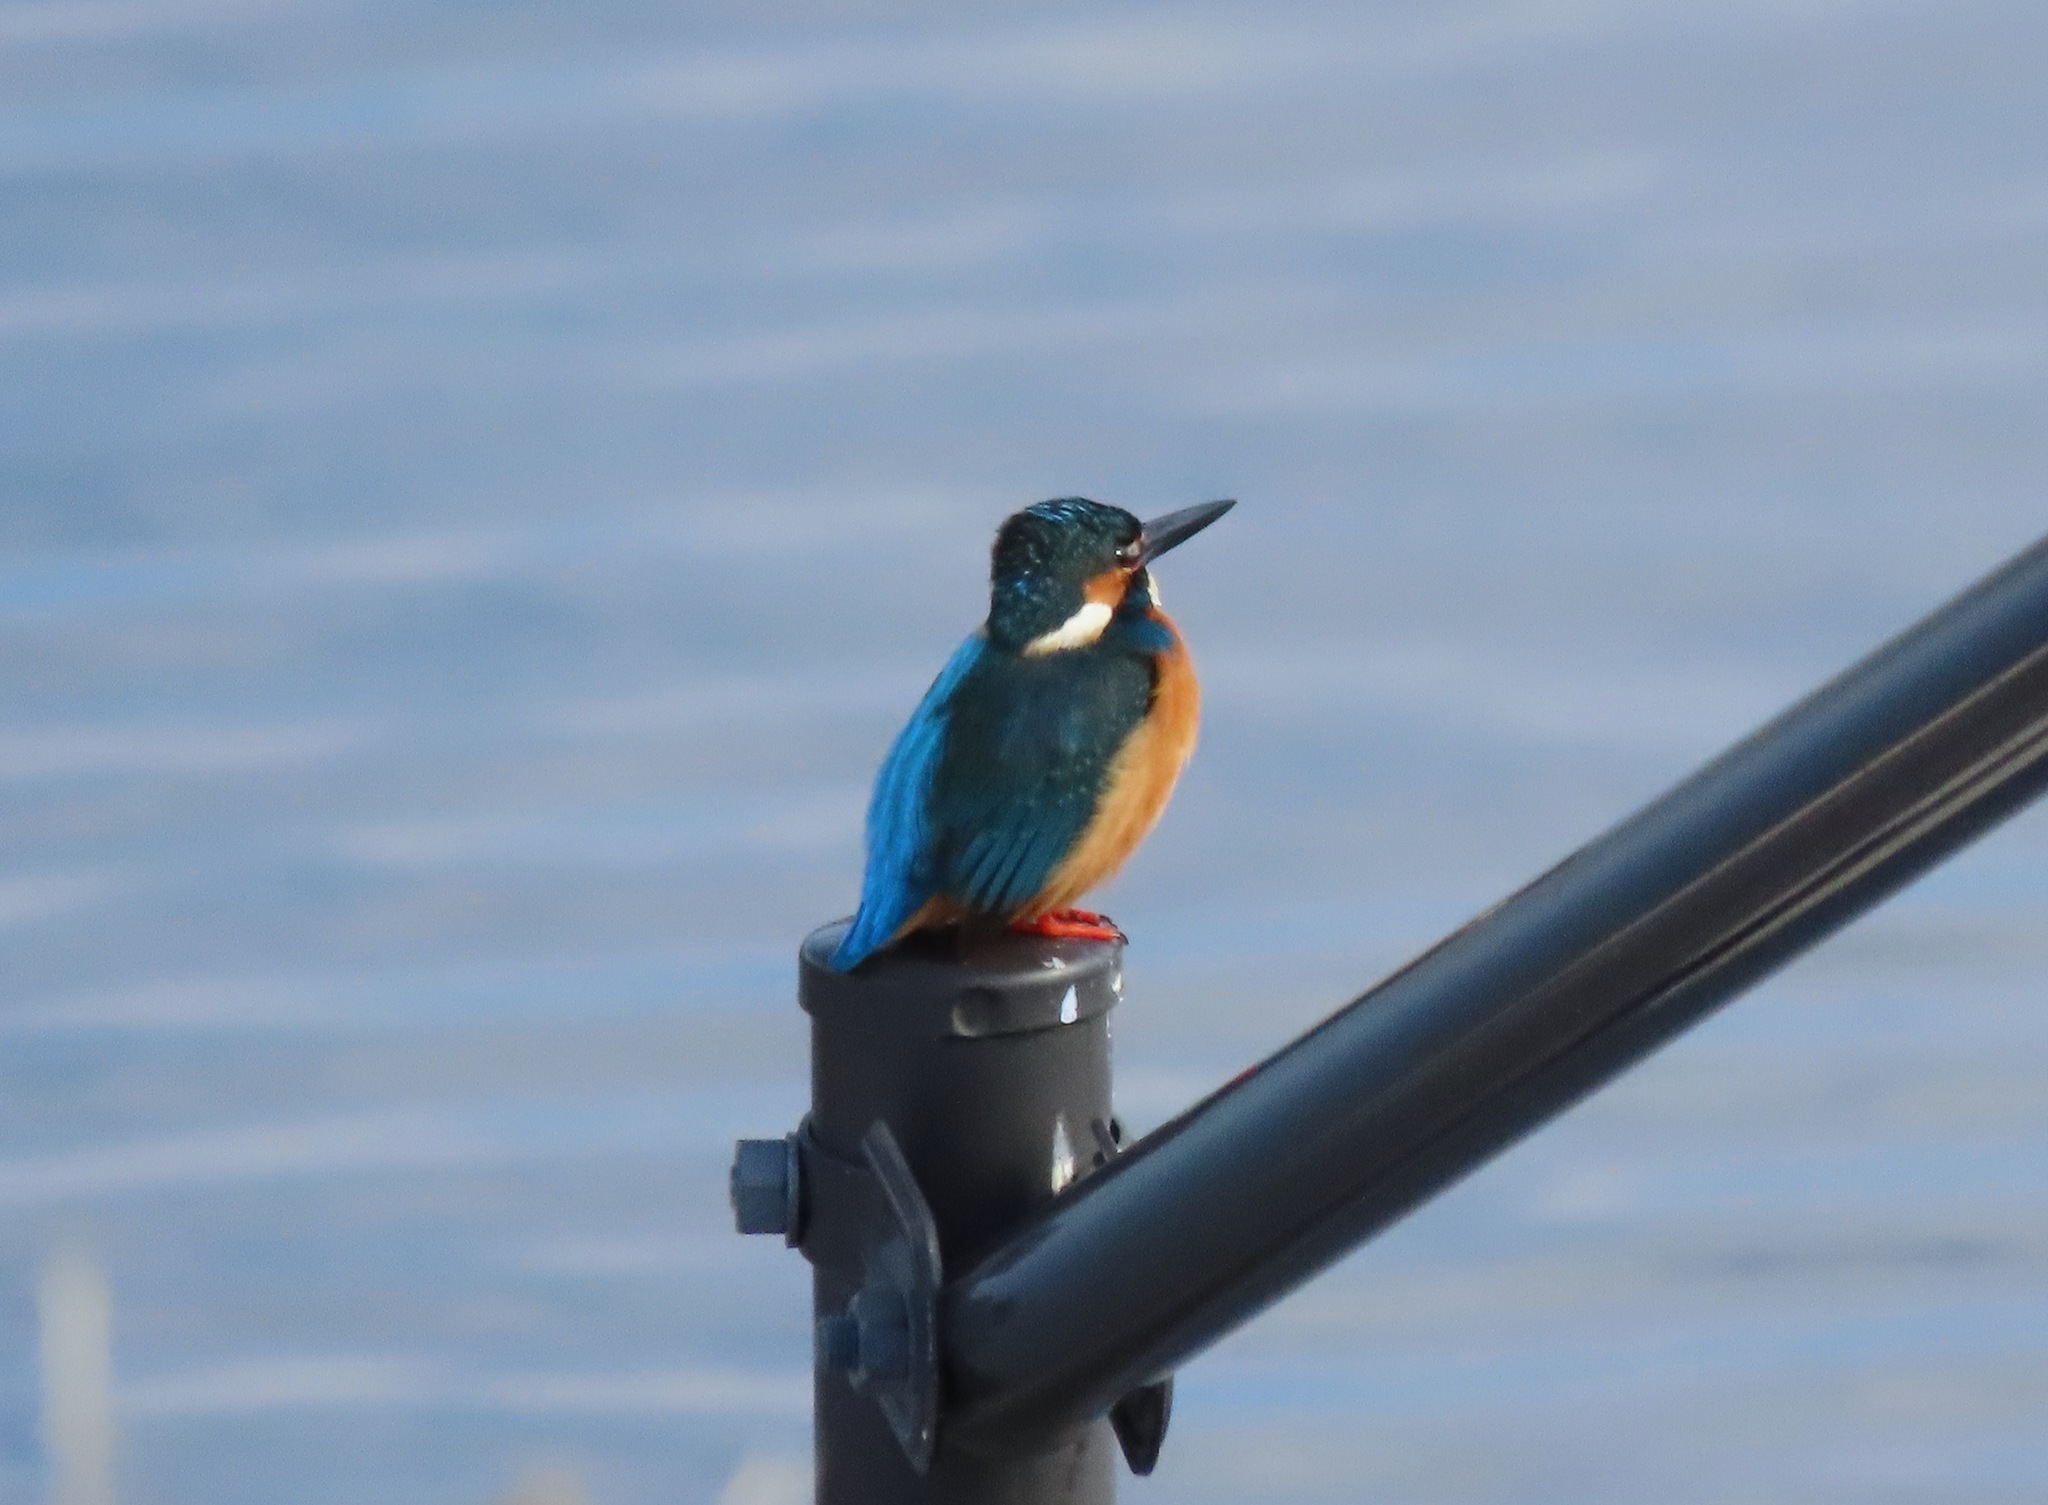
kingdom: Animalia
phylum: Chordata
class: Aves
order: Coraciiformes
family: Alcedinidae
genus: Alcedo
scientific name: Alcedo atthis
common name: Common kingfisher
